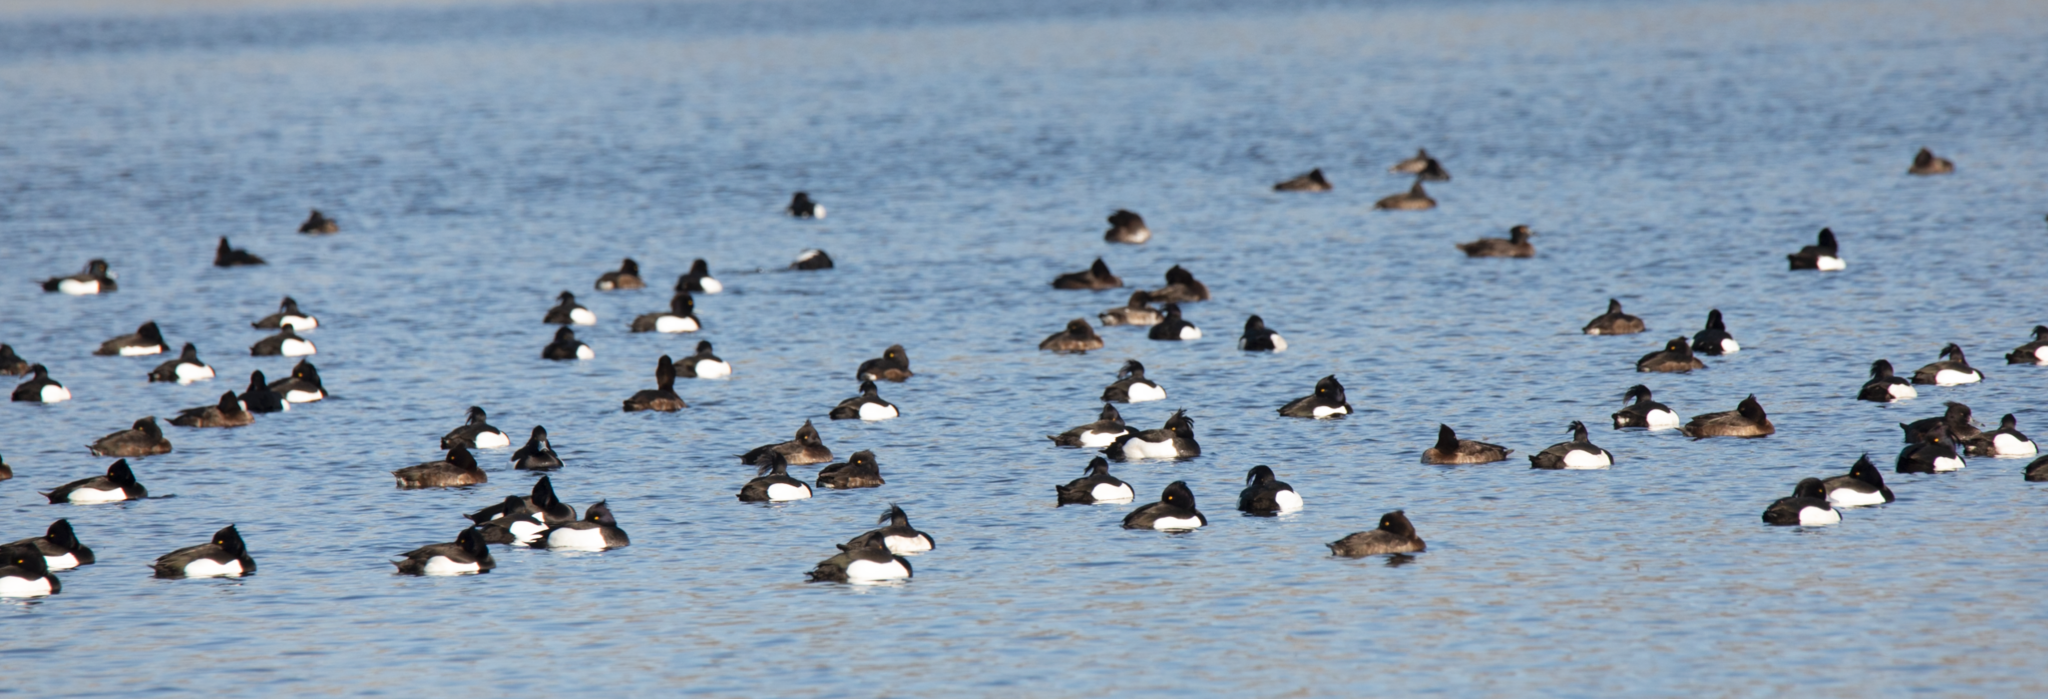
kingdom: Animalia
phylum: Chordata
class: Aves
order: Anseriformes
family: Anatidae
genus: Aythya
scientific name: Aythya fuligula
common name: Tufted duck
